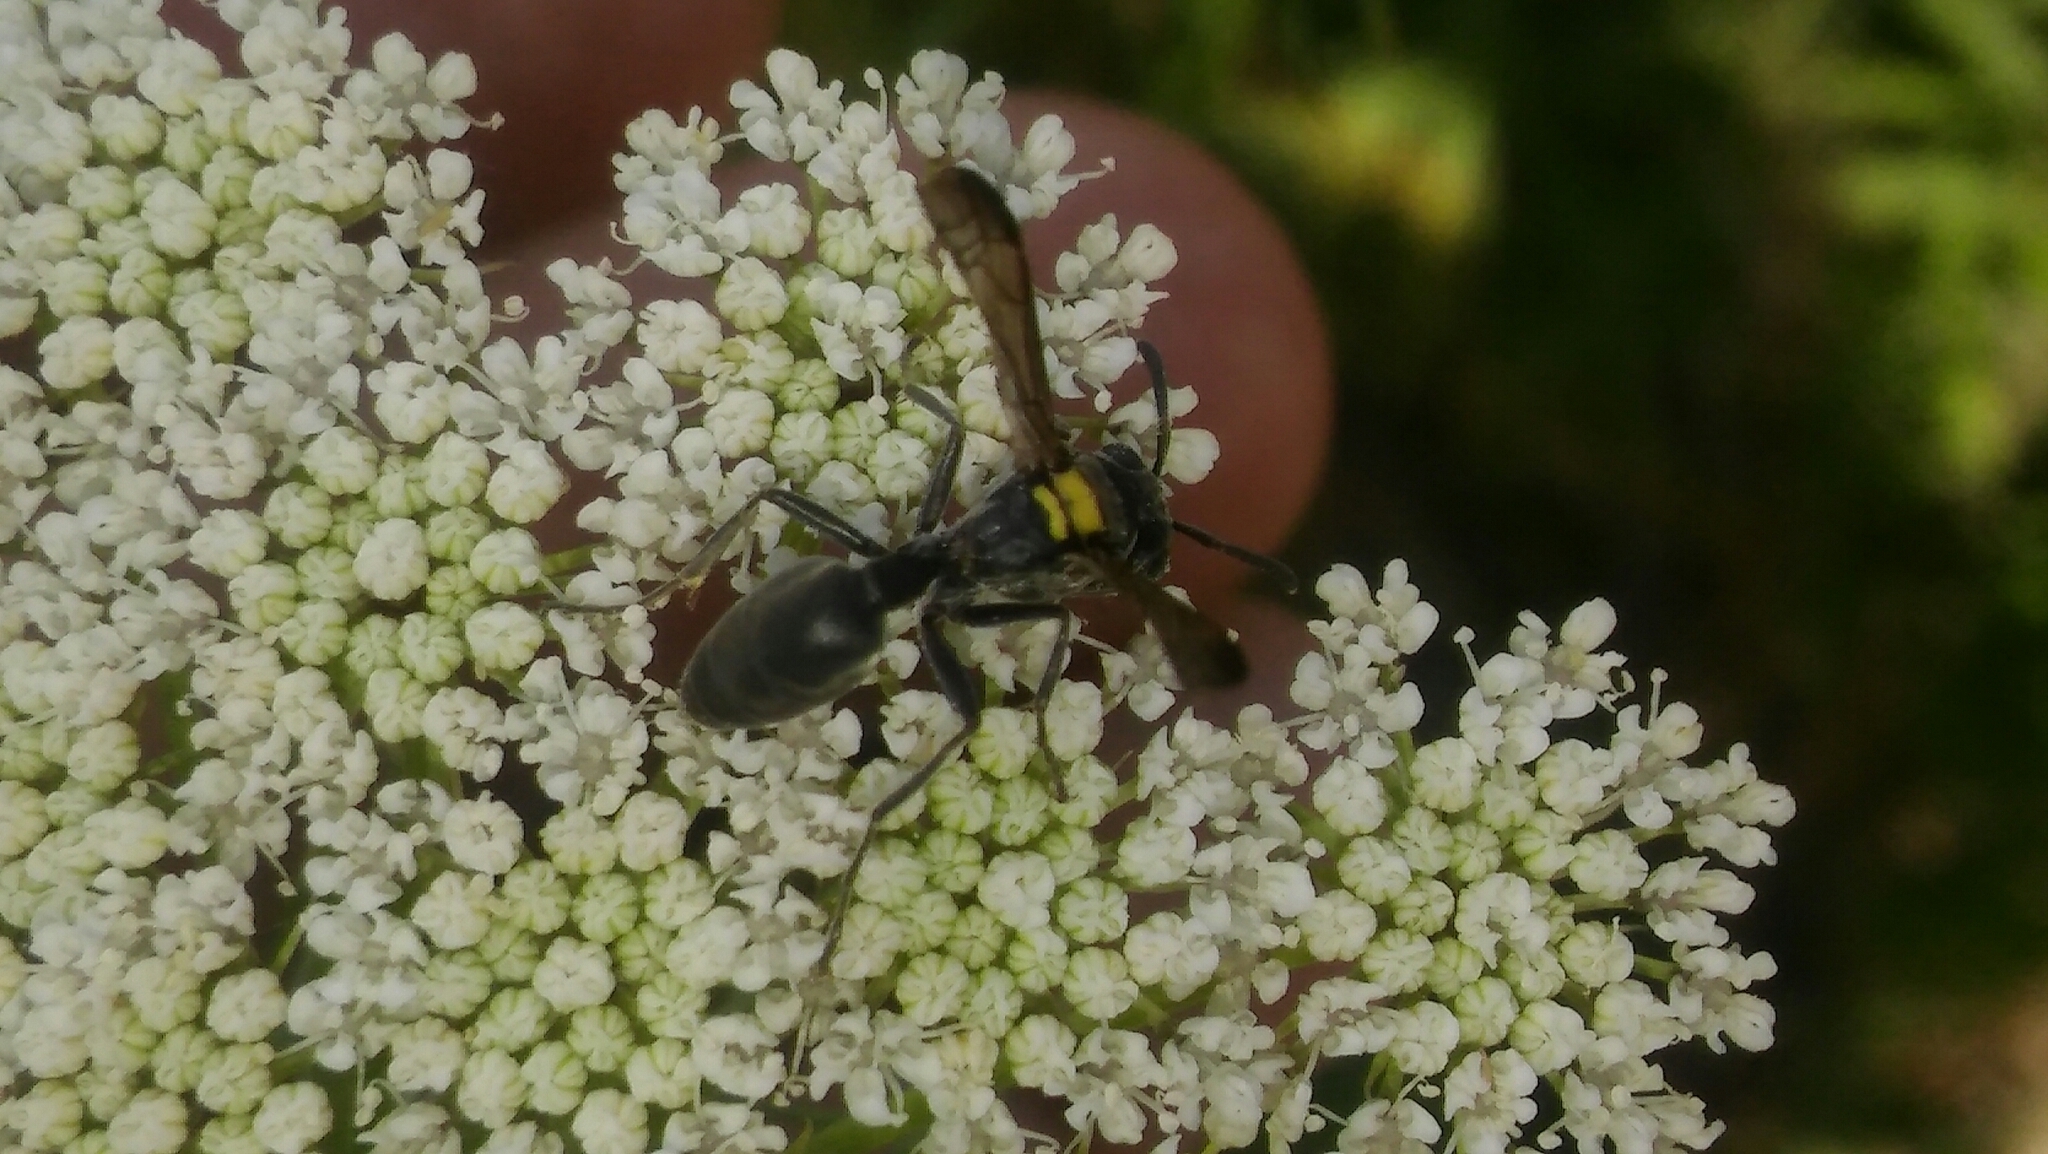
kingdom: Animalia
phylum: Arthropoda
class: Insecta
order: Hymenoptera
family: Eumenidae
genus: Polybia
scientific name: Polybia scutellaris
